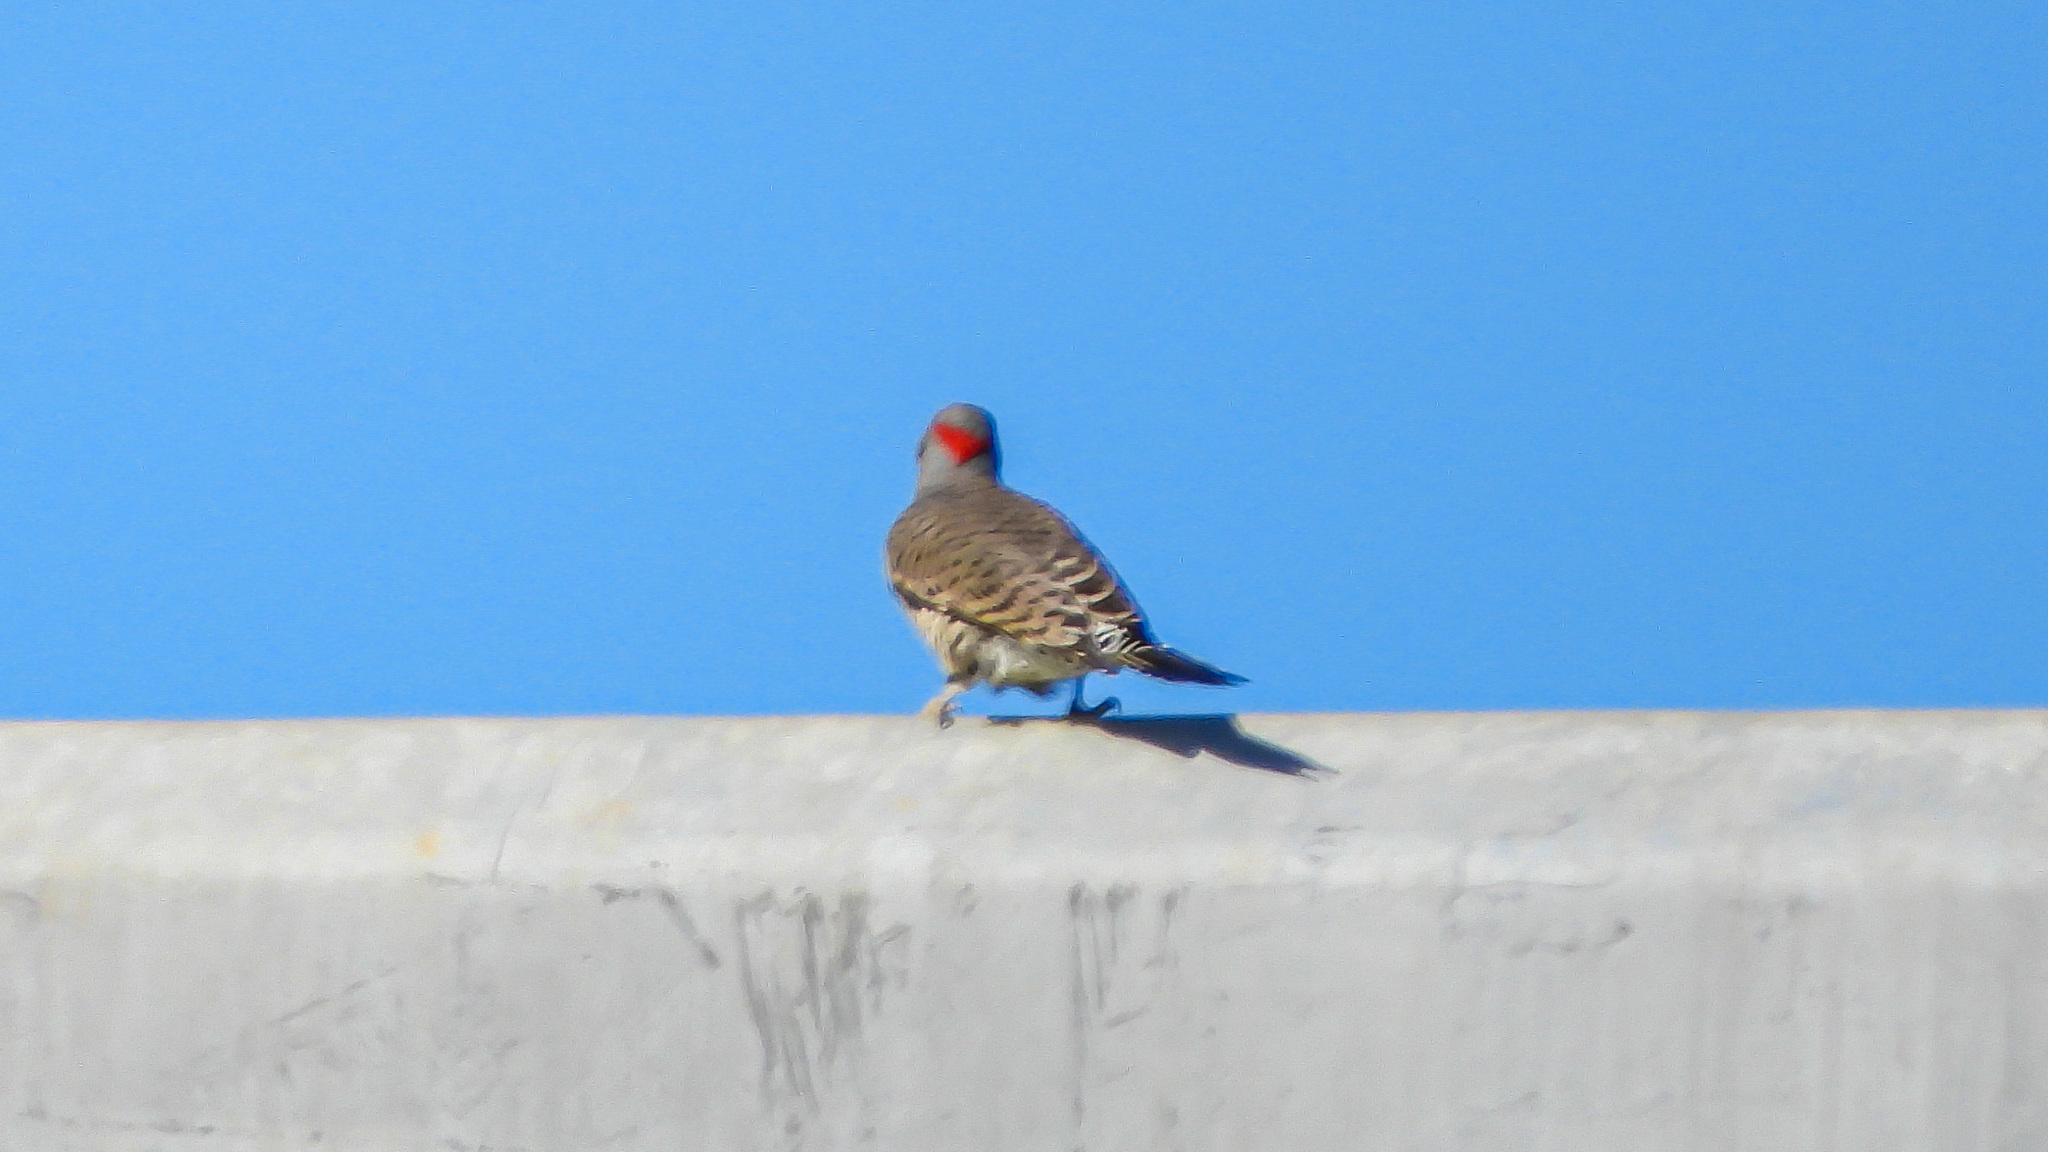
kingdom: Animalia
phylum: Chordata
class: Aves
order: Piciformes
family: Picidae
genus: Colaptes
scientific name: Colaptes auratus
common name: Northern flicker
